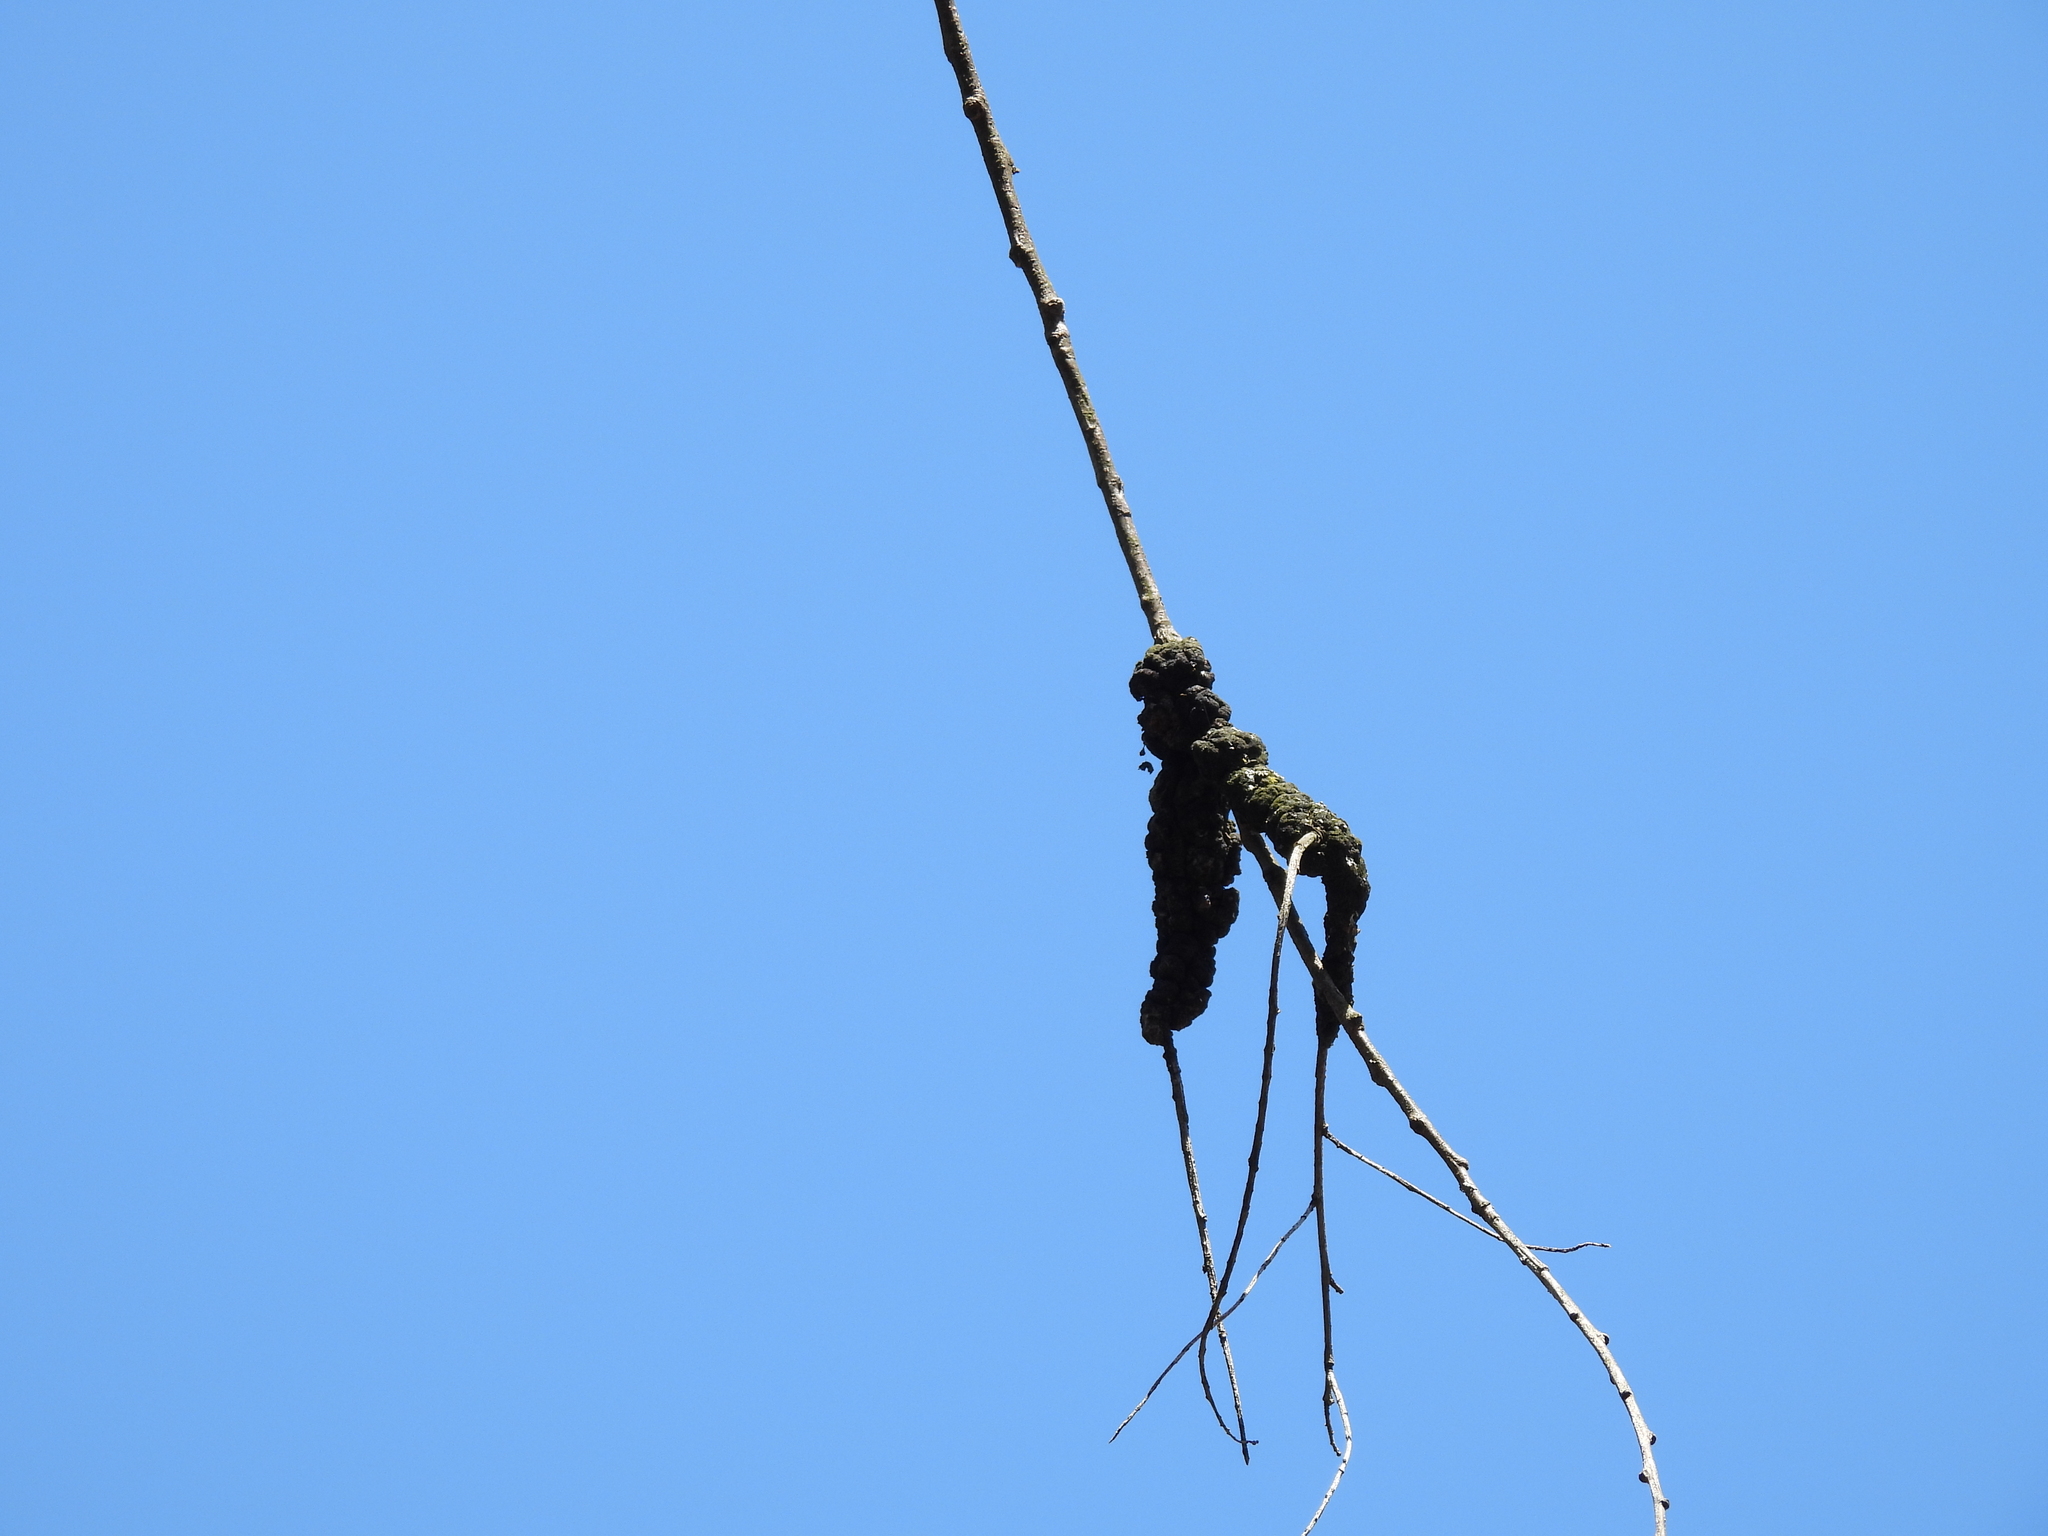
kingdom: Fungi
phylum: Ascomycota
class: Dothideomycetes
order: Venturiales
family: Venturiaceae
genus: Apiosporina
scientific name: Apiosporina morbosa
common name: Black knot
